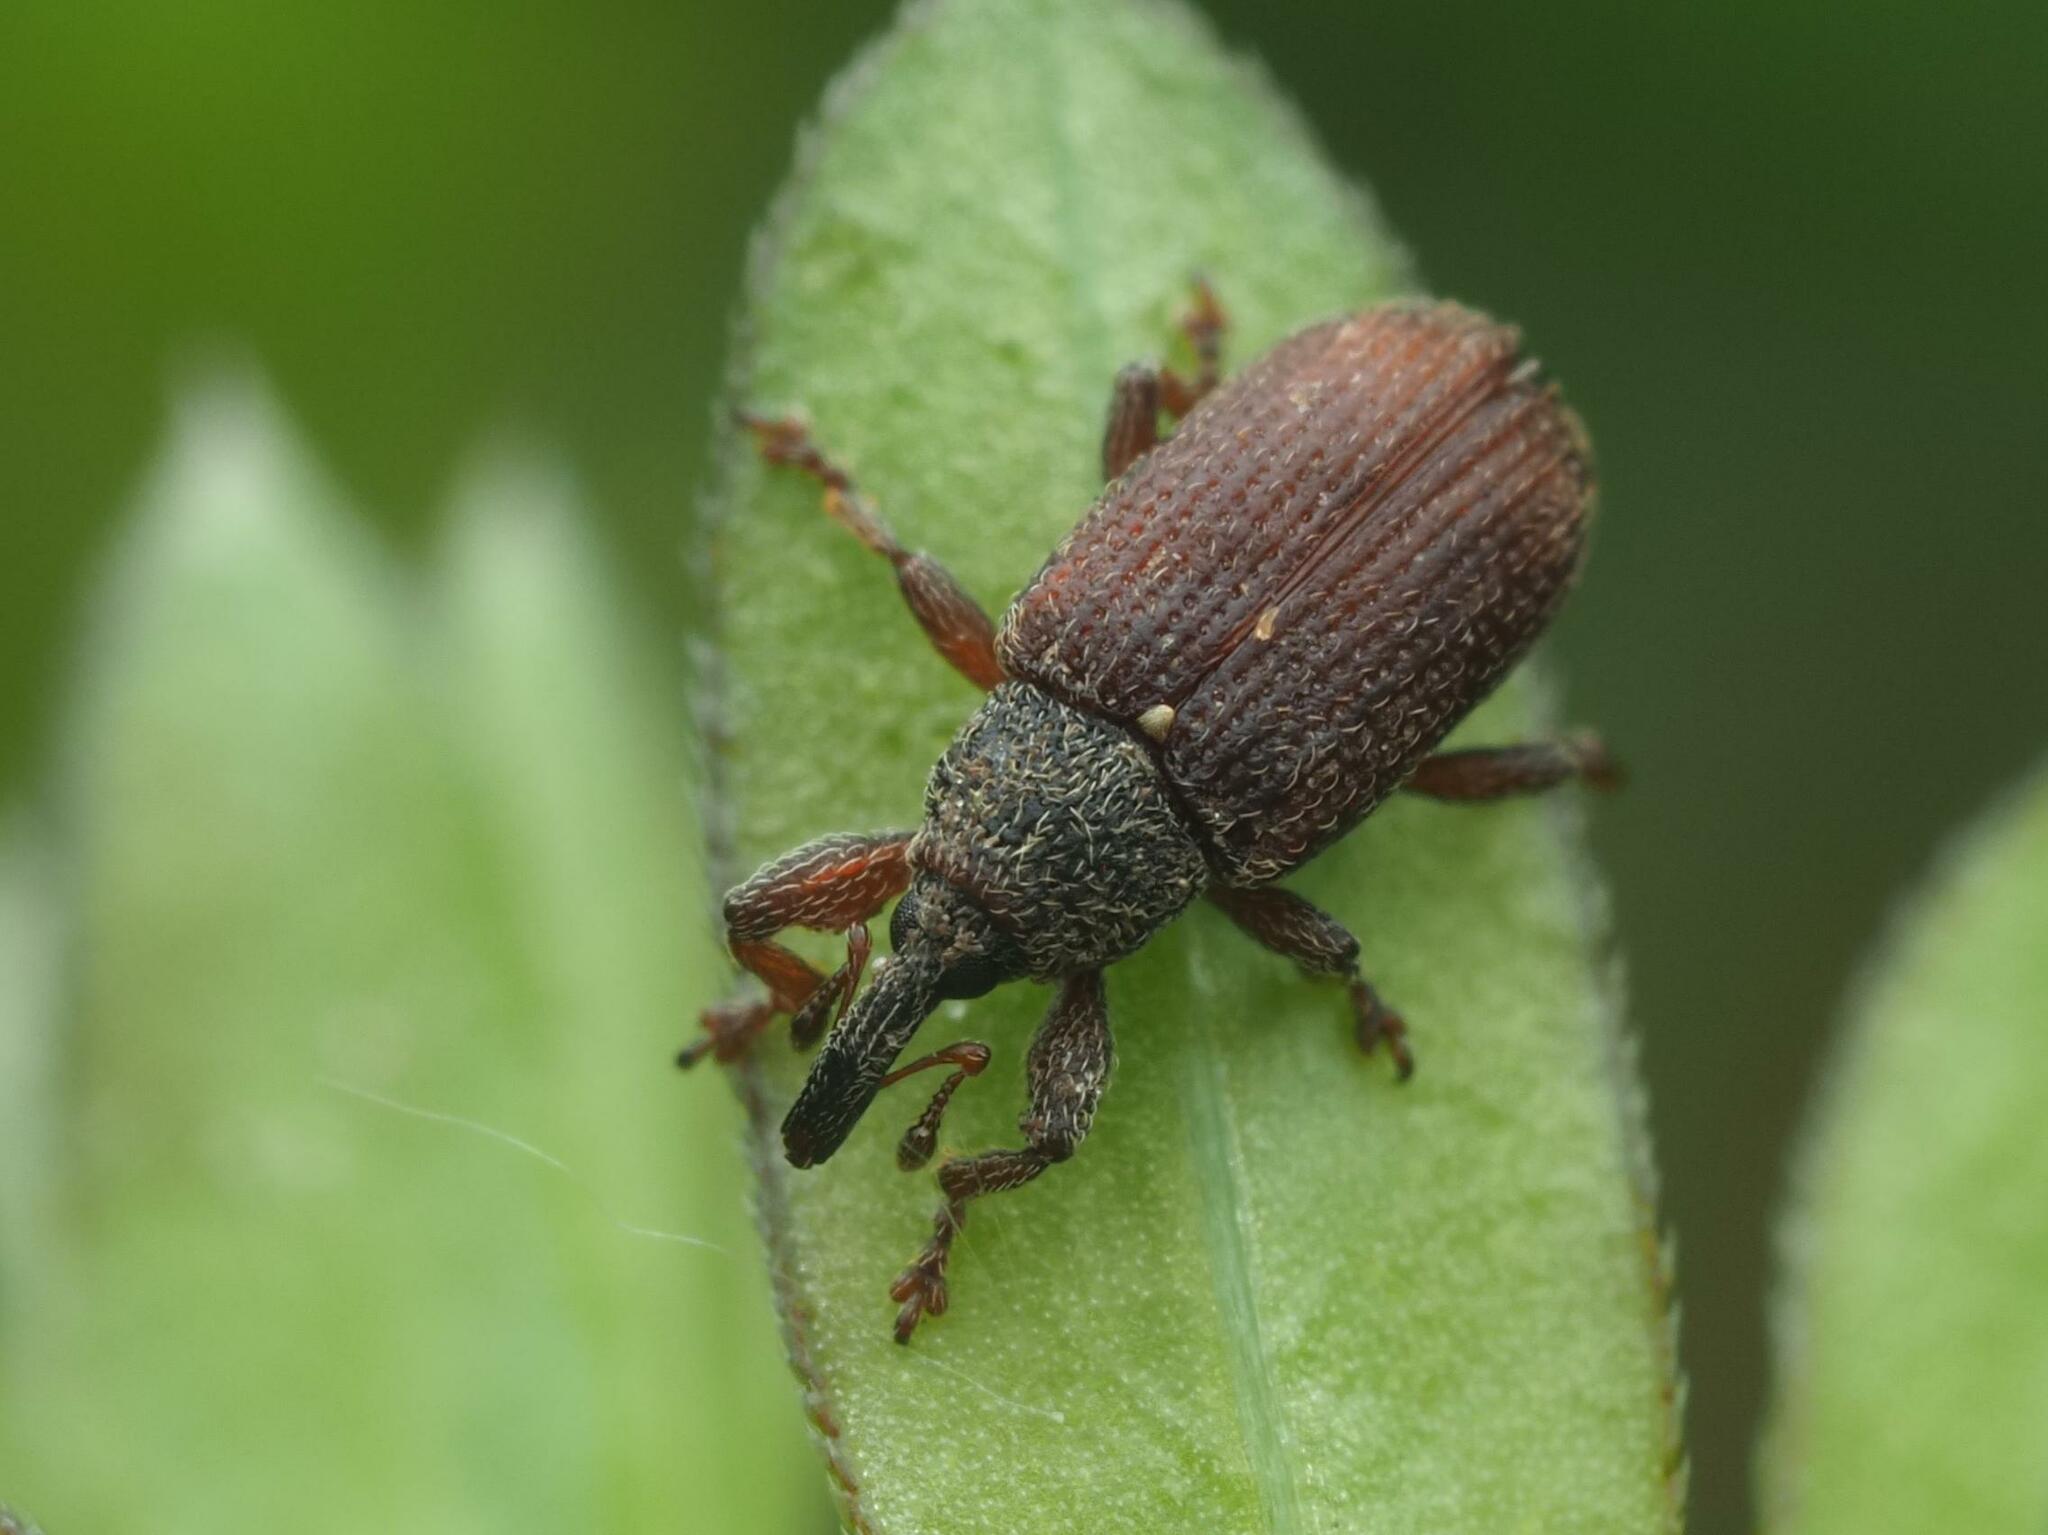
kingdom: Animalia
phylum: Arthropoda
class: Insecta
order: Coleoptera
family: Curculionidae
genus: Bradybatus
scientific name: Bradybatus kellneri
